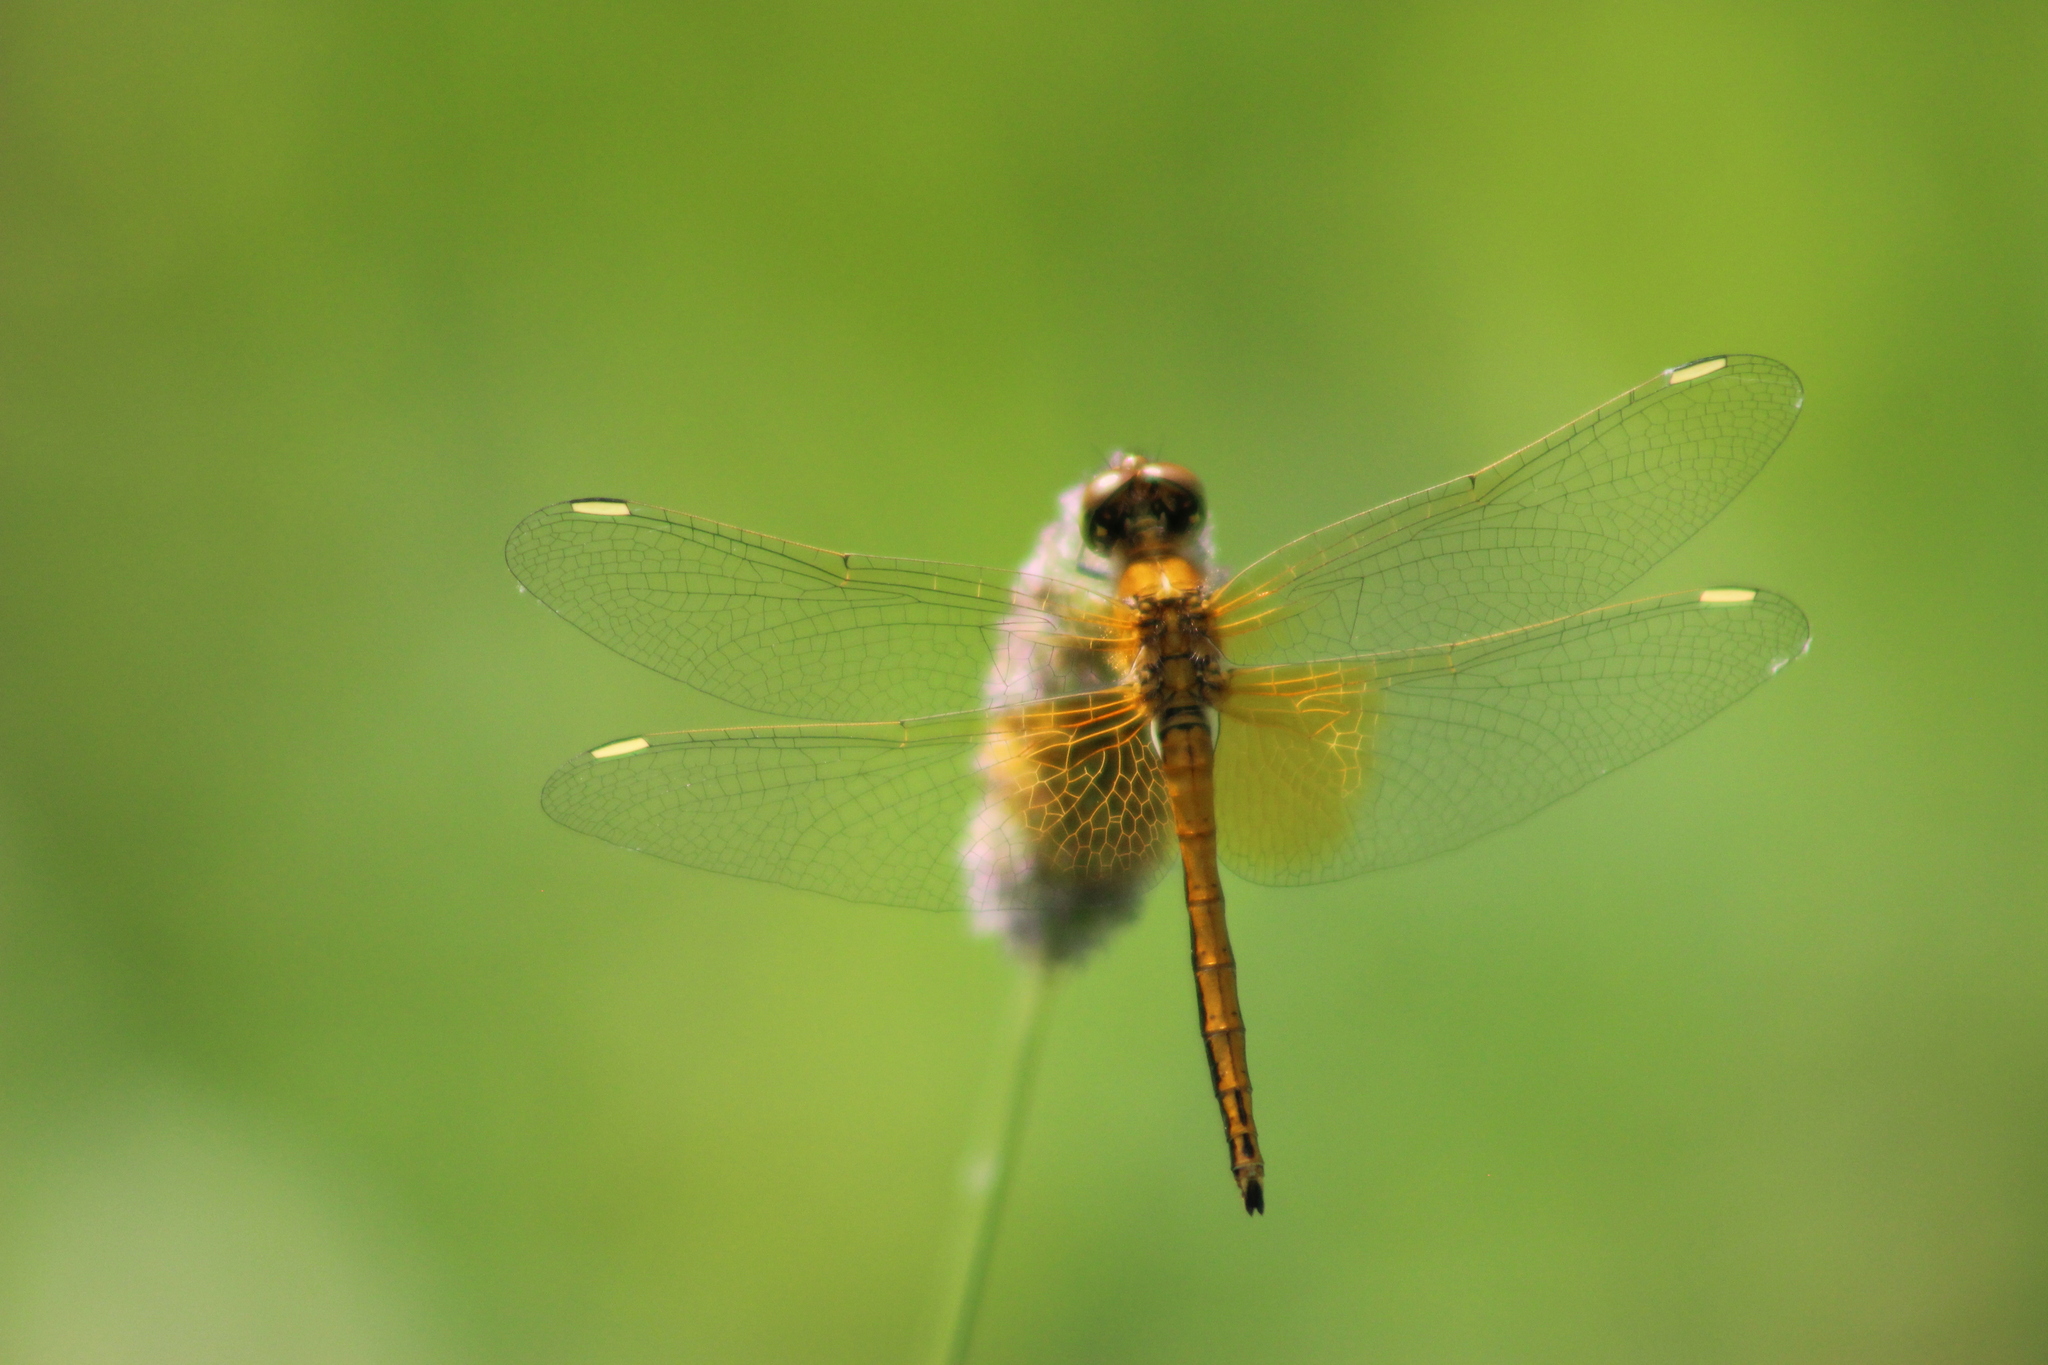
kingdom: Animalia
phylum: Arthropoda
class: Insecta
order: Odonata
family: Libellulidae
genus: Sympetrum
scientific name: Sympetrum flaveolum
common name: Yellow-winged darter
